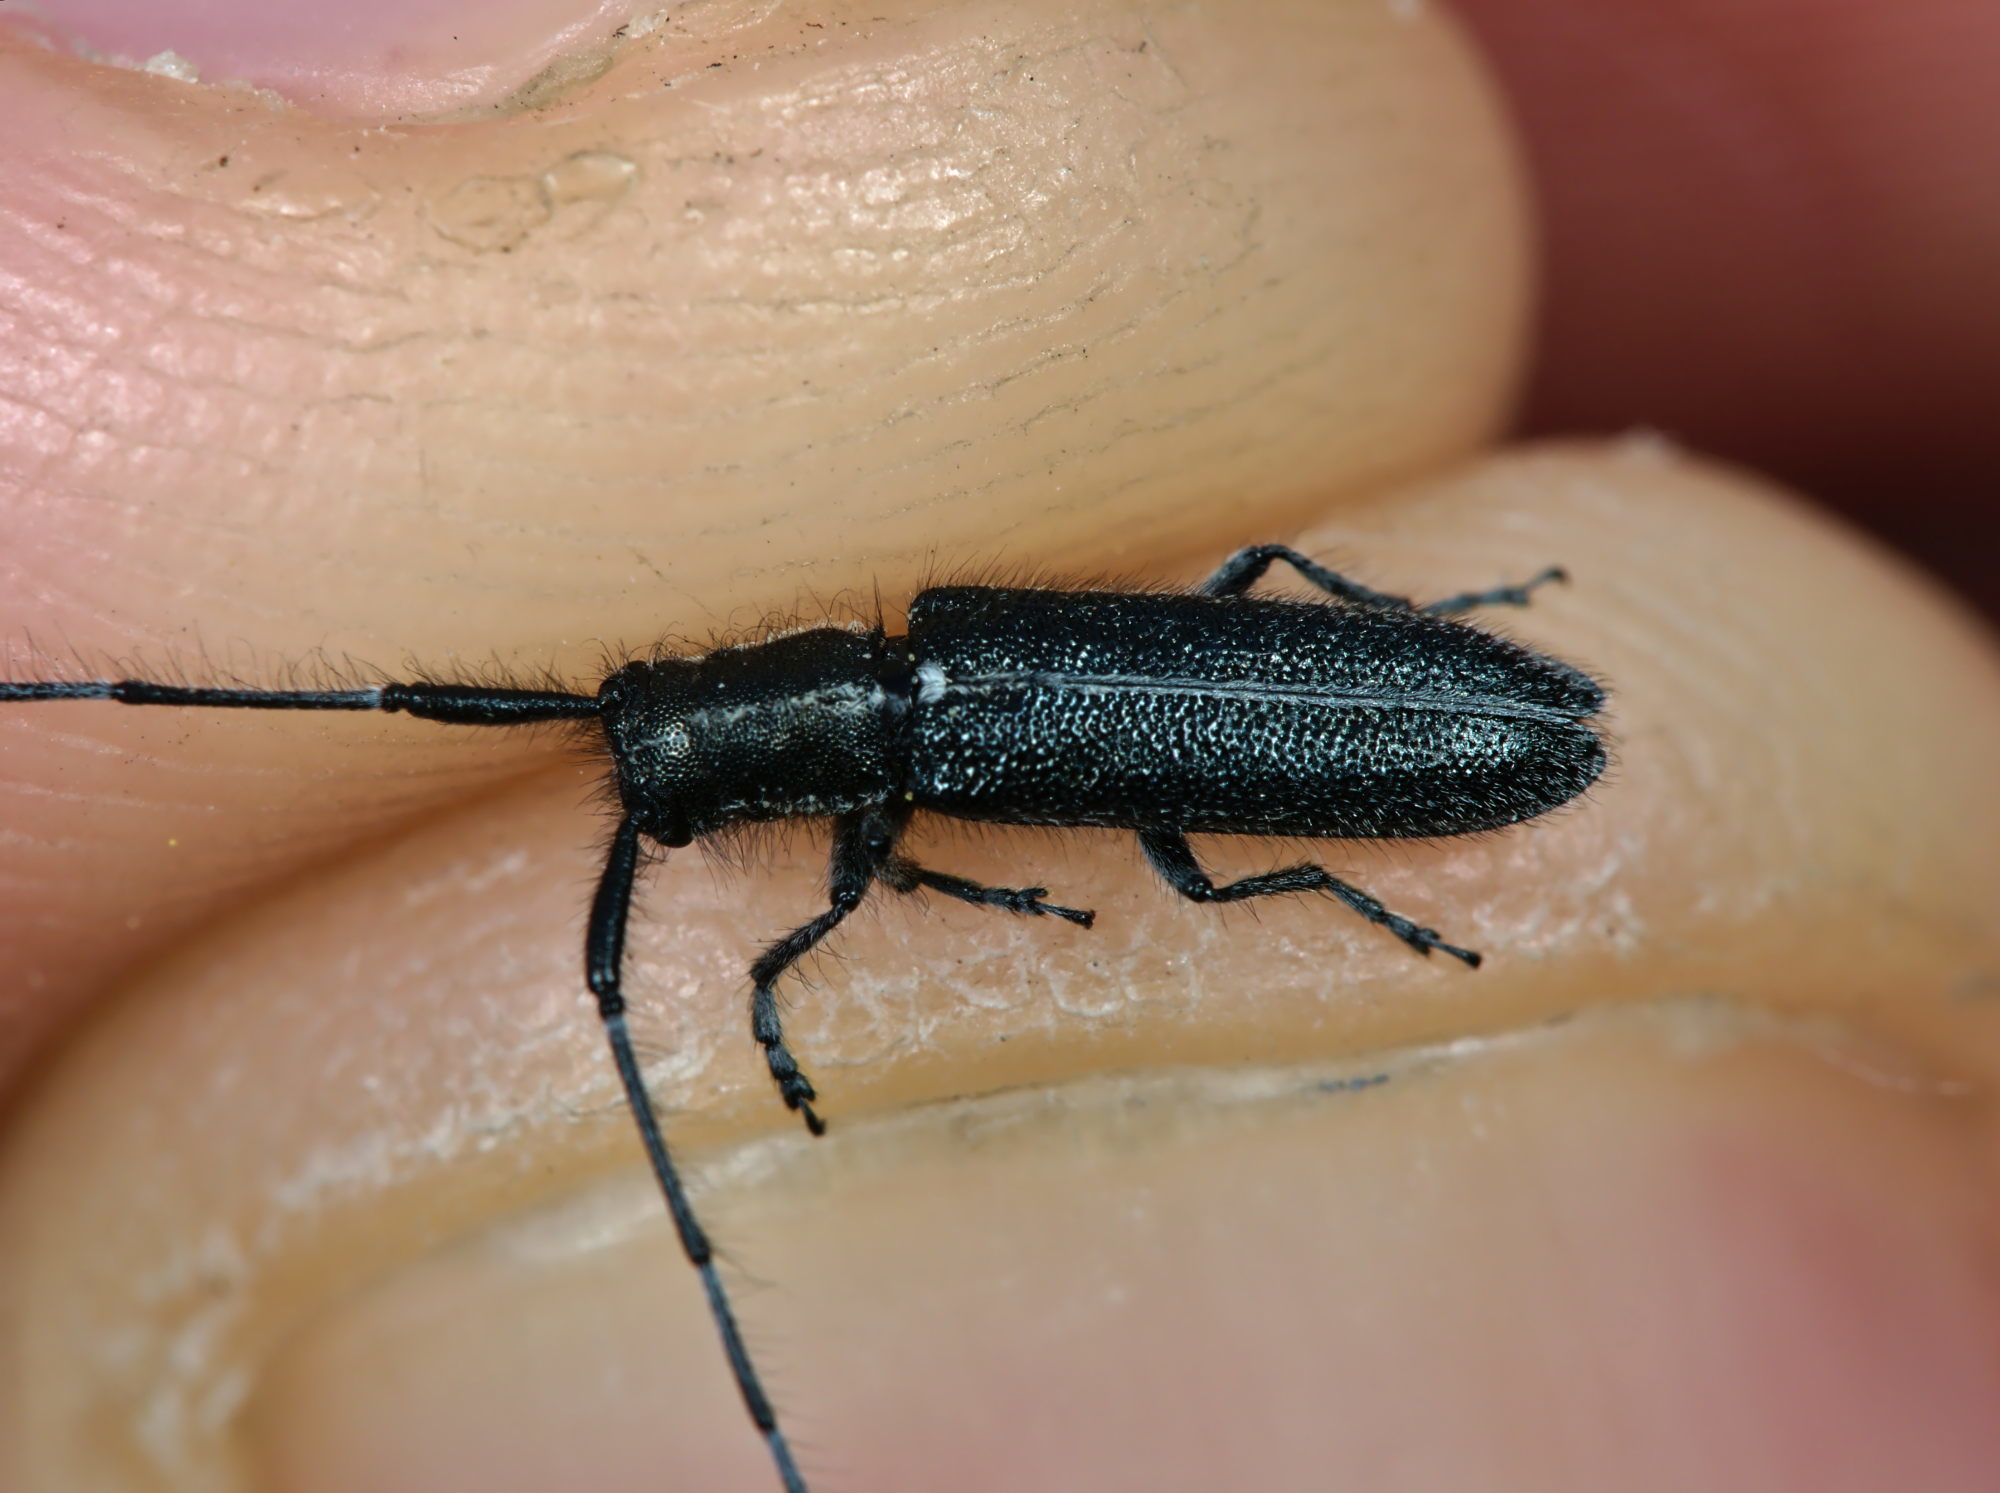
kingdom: Animalia
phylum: Arthropoda
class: Insecta
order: Coleoptera
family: Cerambycidae
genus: Agapanthia
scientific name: Agapanthia cardui
